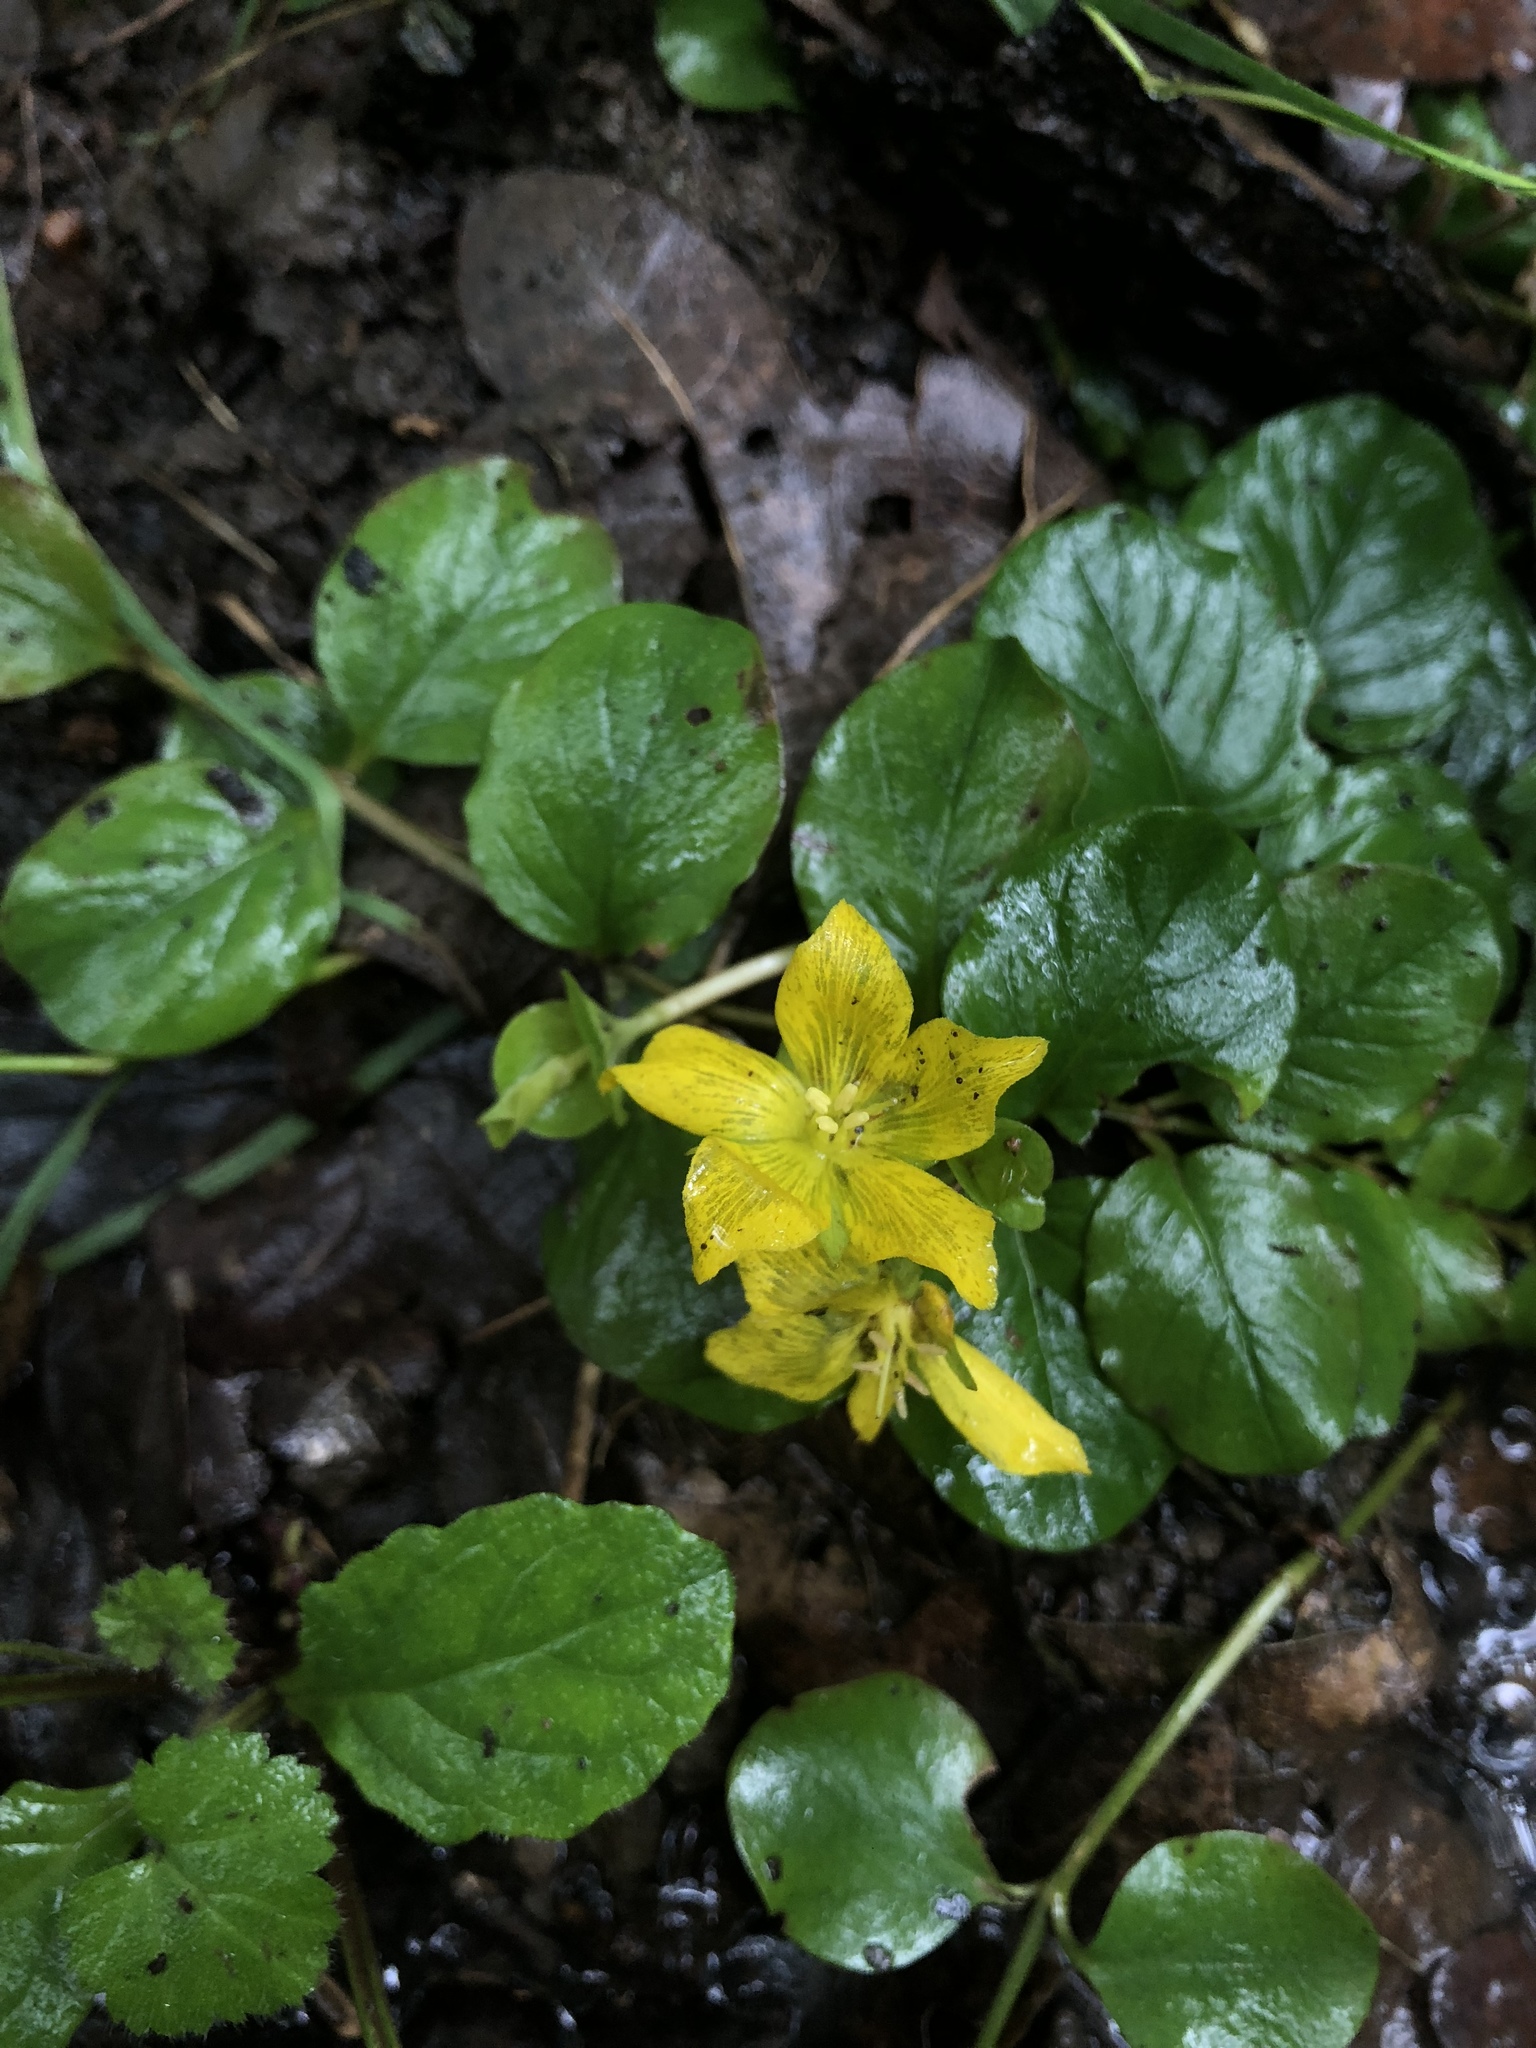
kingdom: Plantae
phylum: Tracheophyta
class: Magnoliopsida
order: Ericales
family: Primulaceae
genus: Lysimachia
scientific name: Lysimachia nummularia
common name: Moneywort
